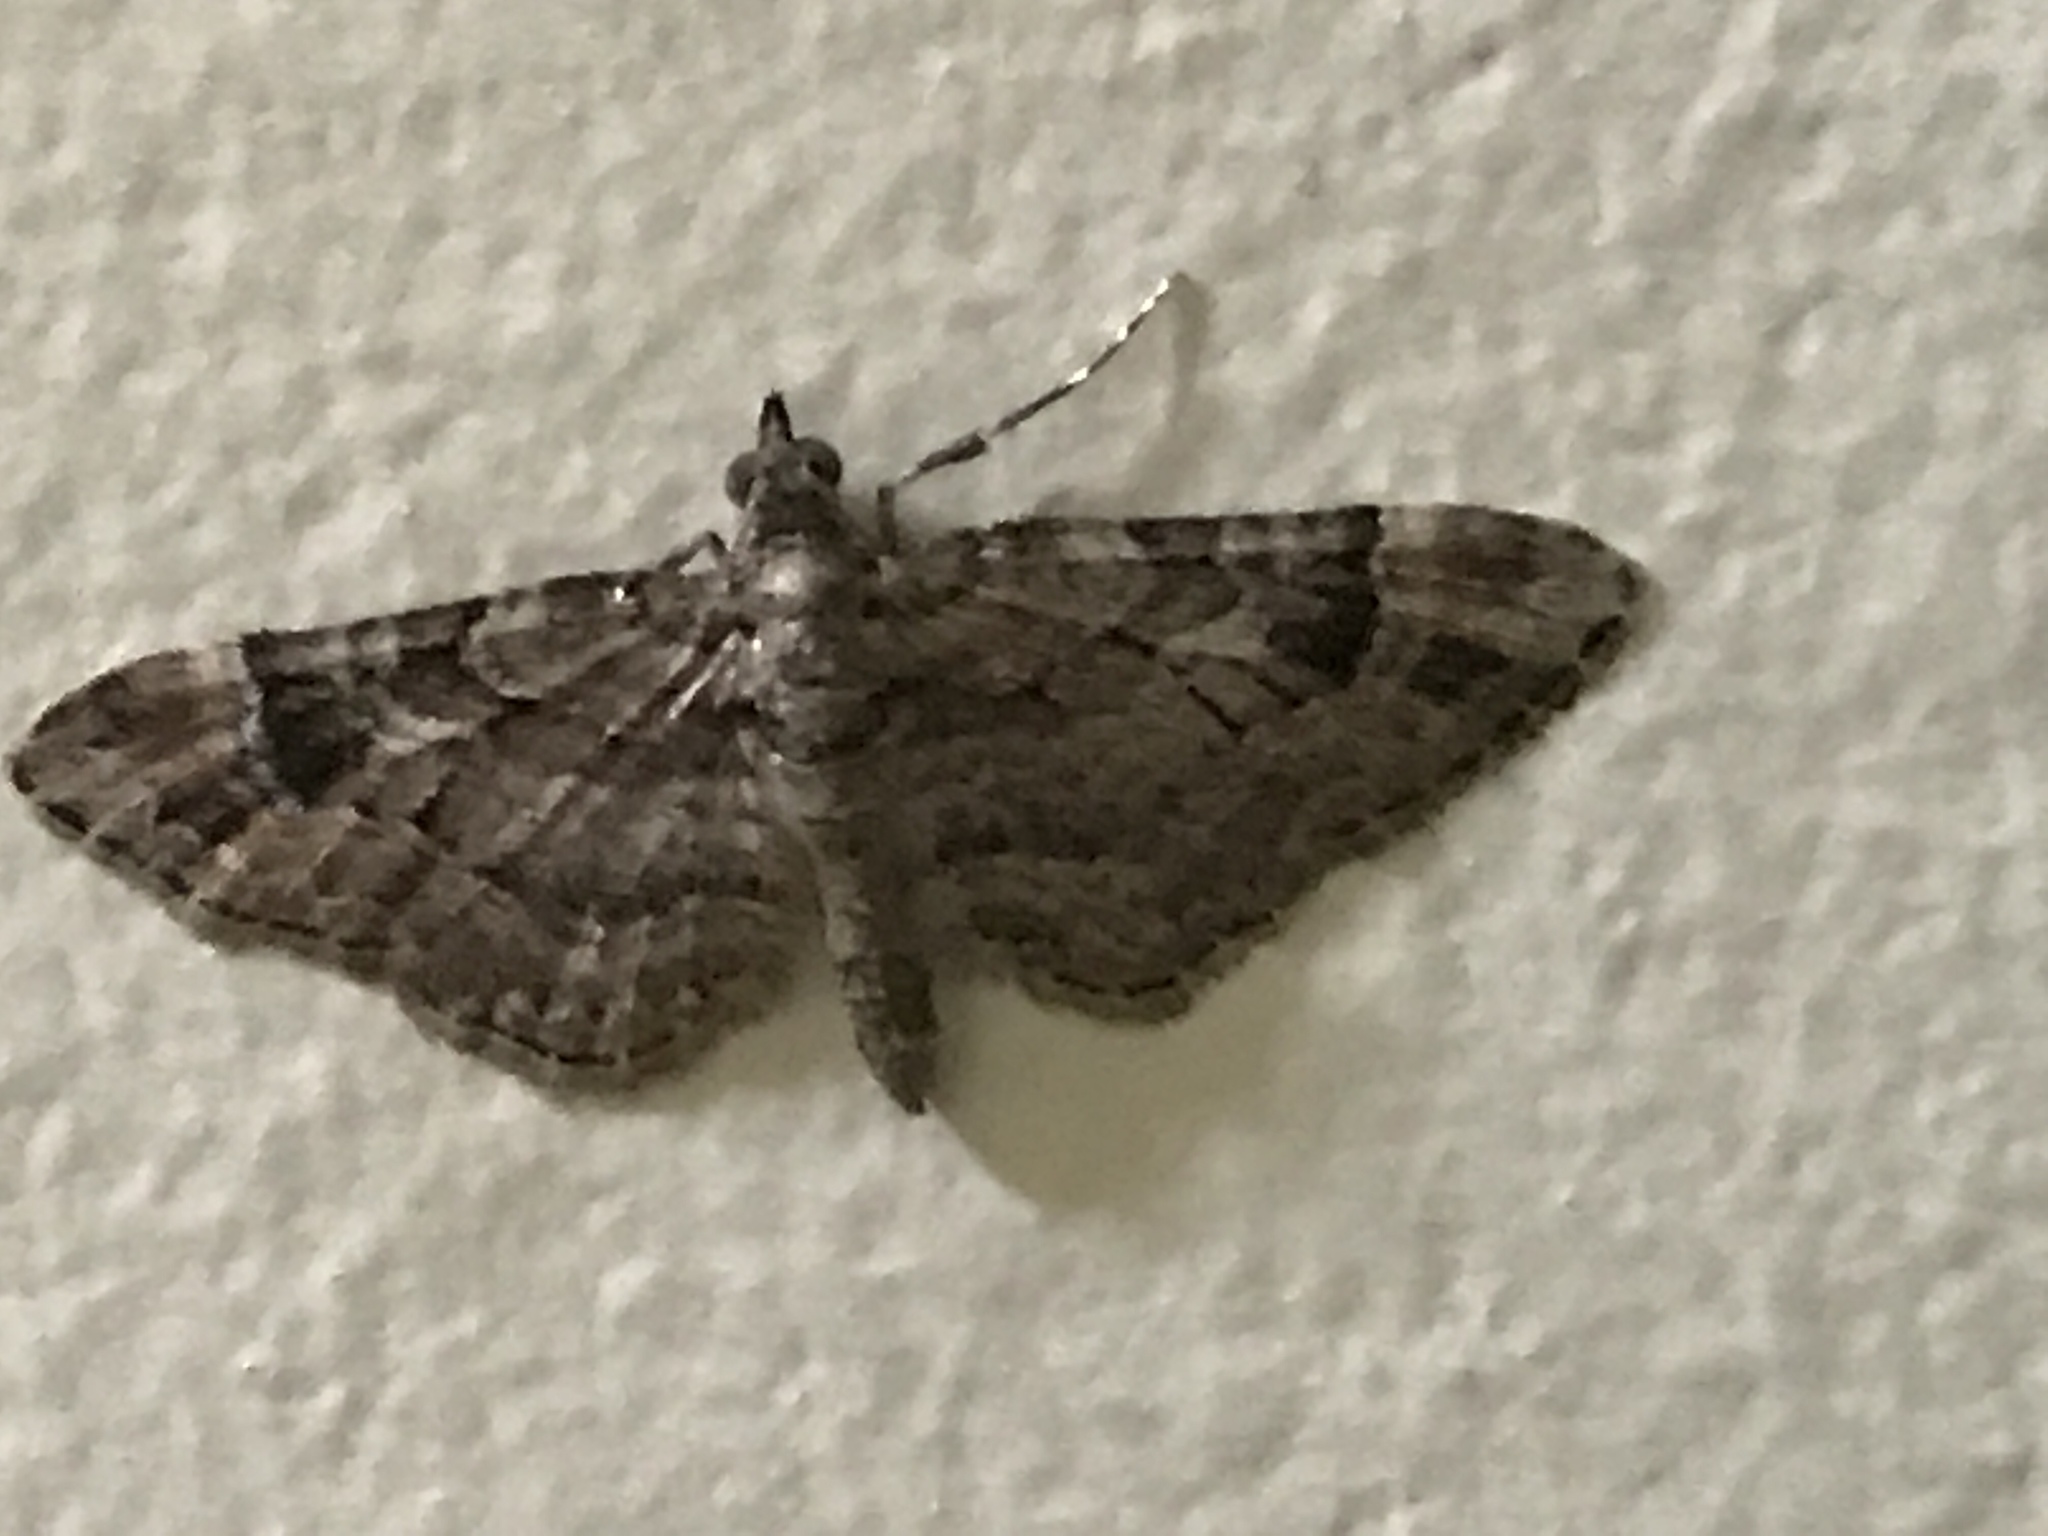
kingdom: Animalia
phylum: Arthropoda
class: Insecta
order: Lepidoptera
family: Geometridae
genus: Gymnoscelis
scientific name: Gymnoscelis rufifasciata
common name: Double-striped pug
